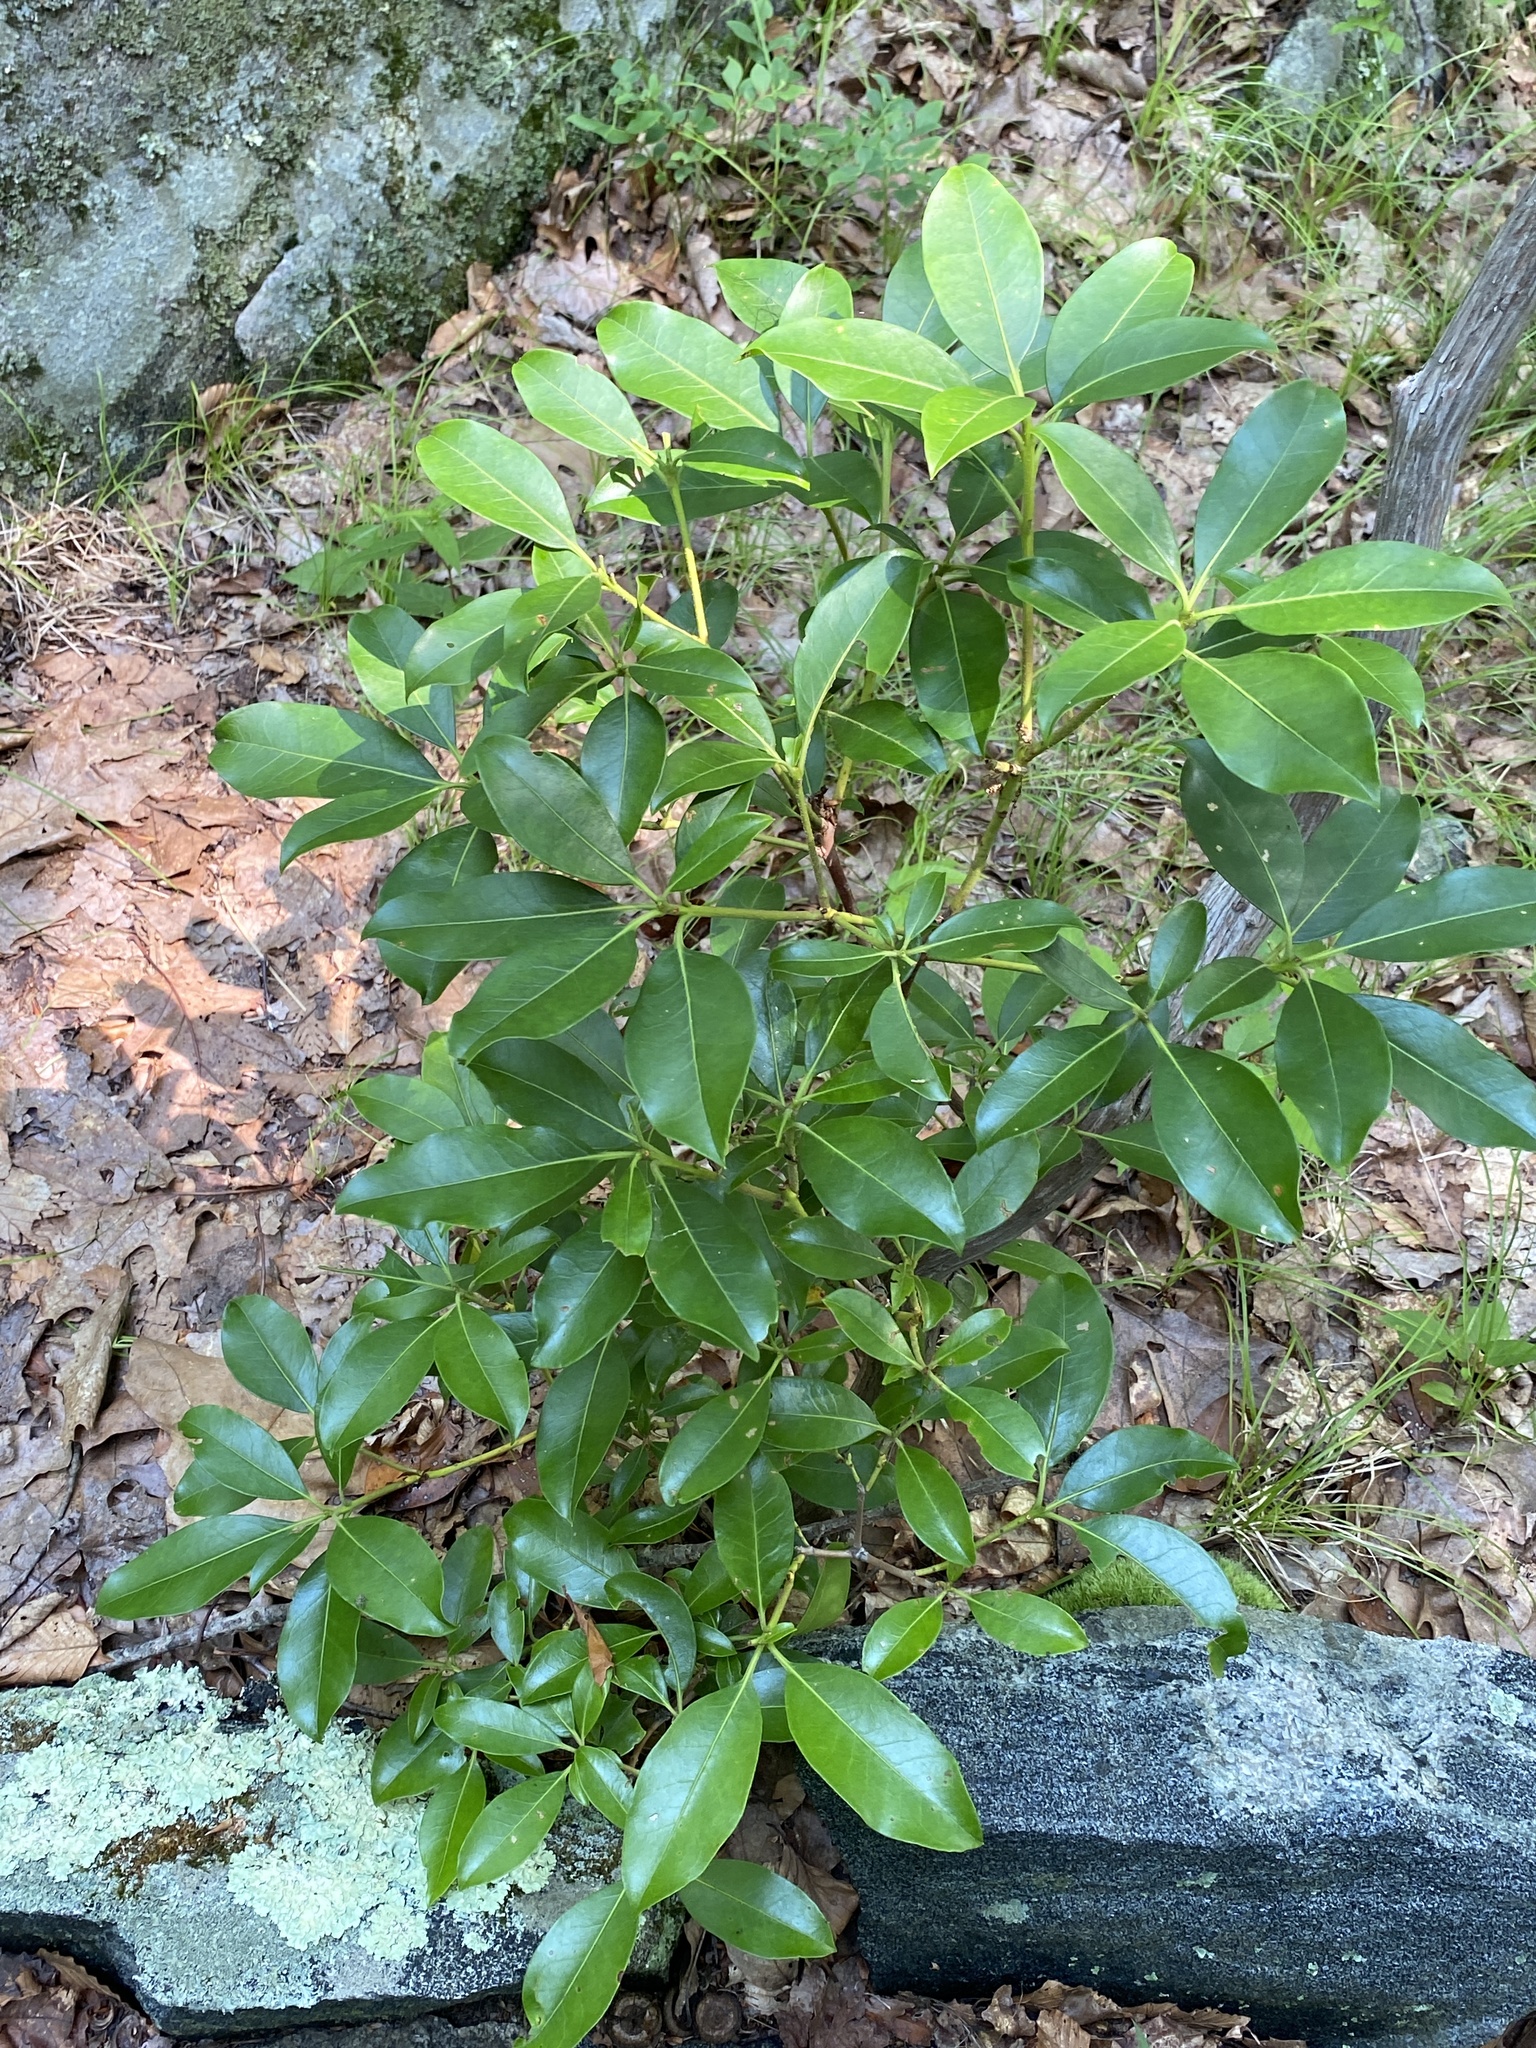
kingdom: Plantae
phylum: Tracheophyta
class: Magnoliopsida
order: Ericales
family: Ericaceae
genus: Kalmia
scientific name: Kalmia latifolia
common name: Mountain-laurel
